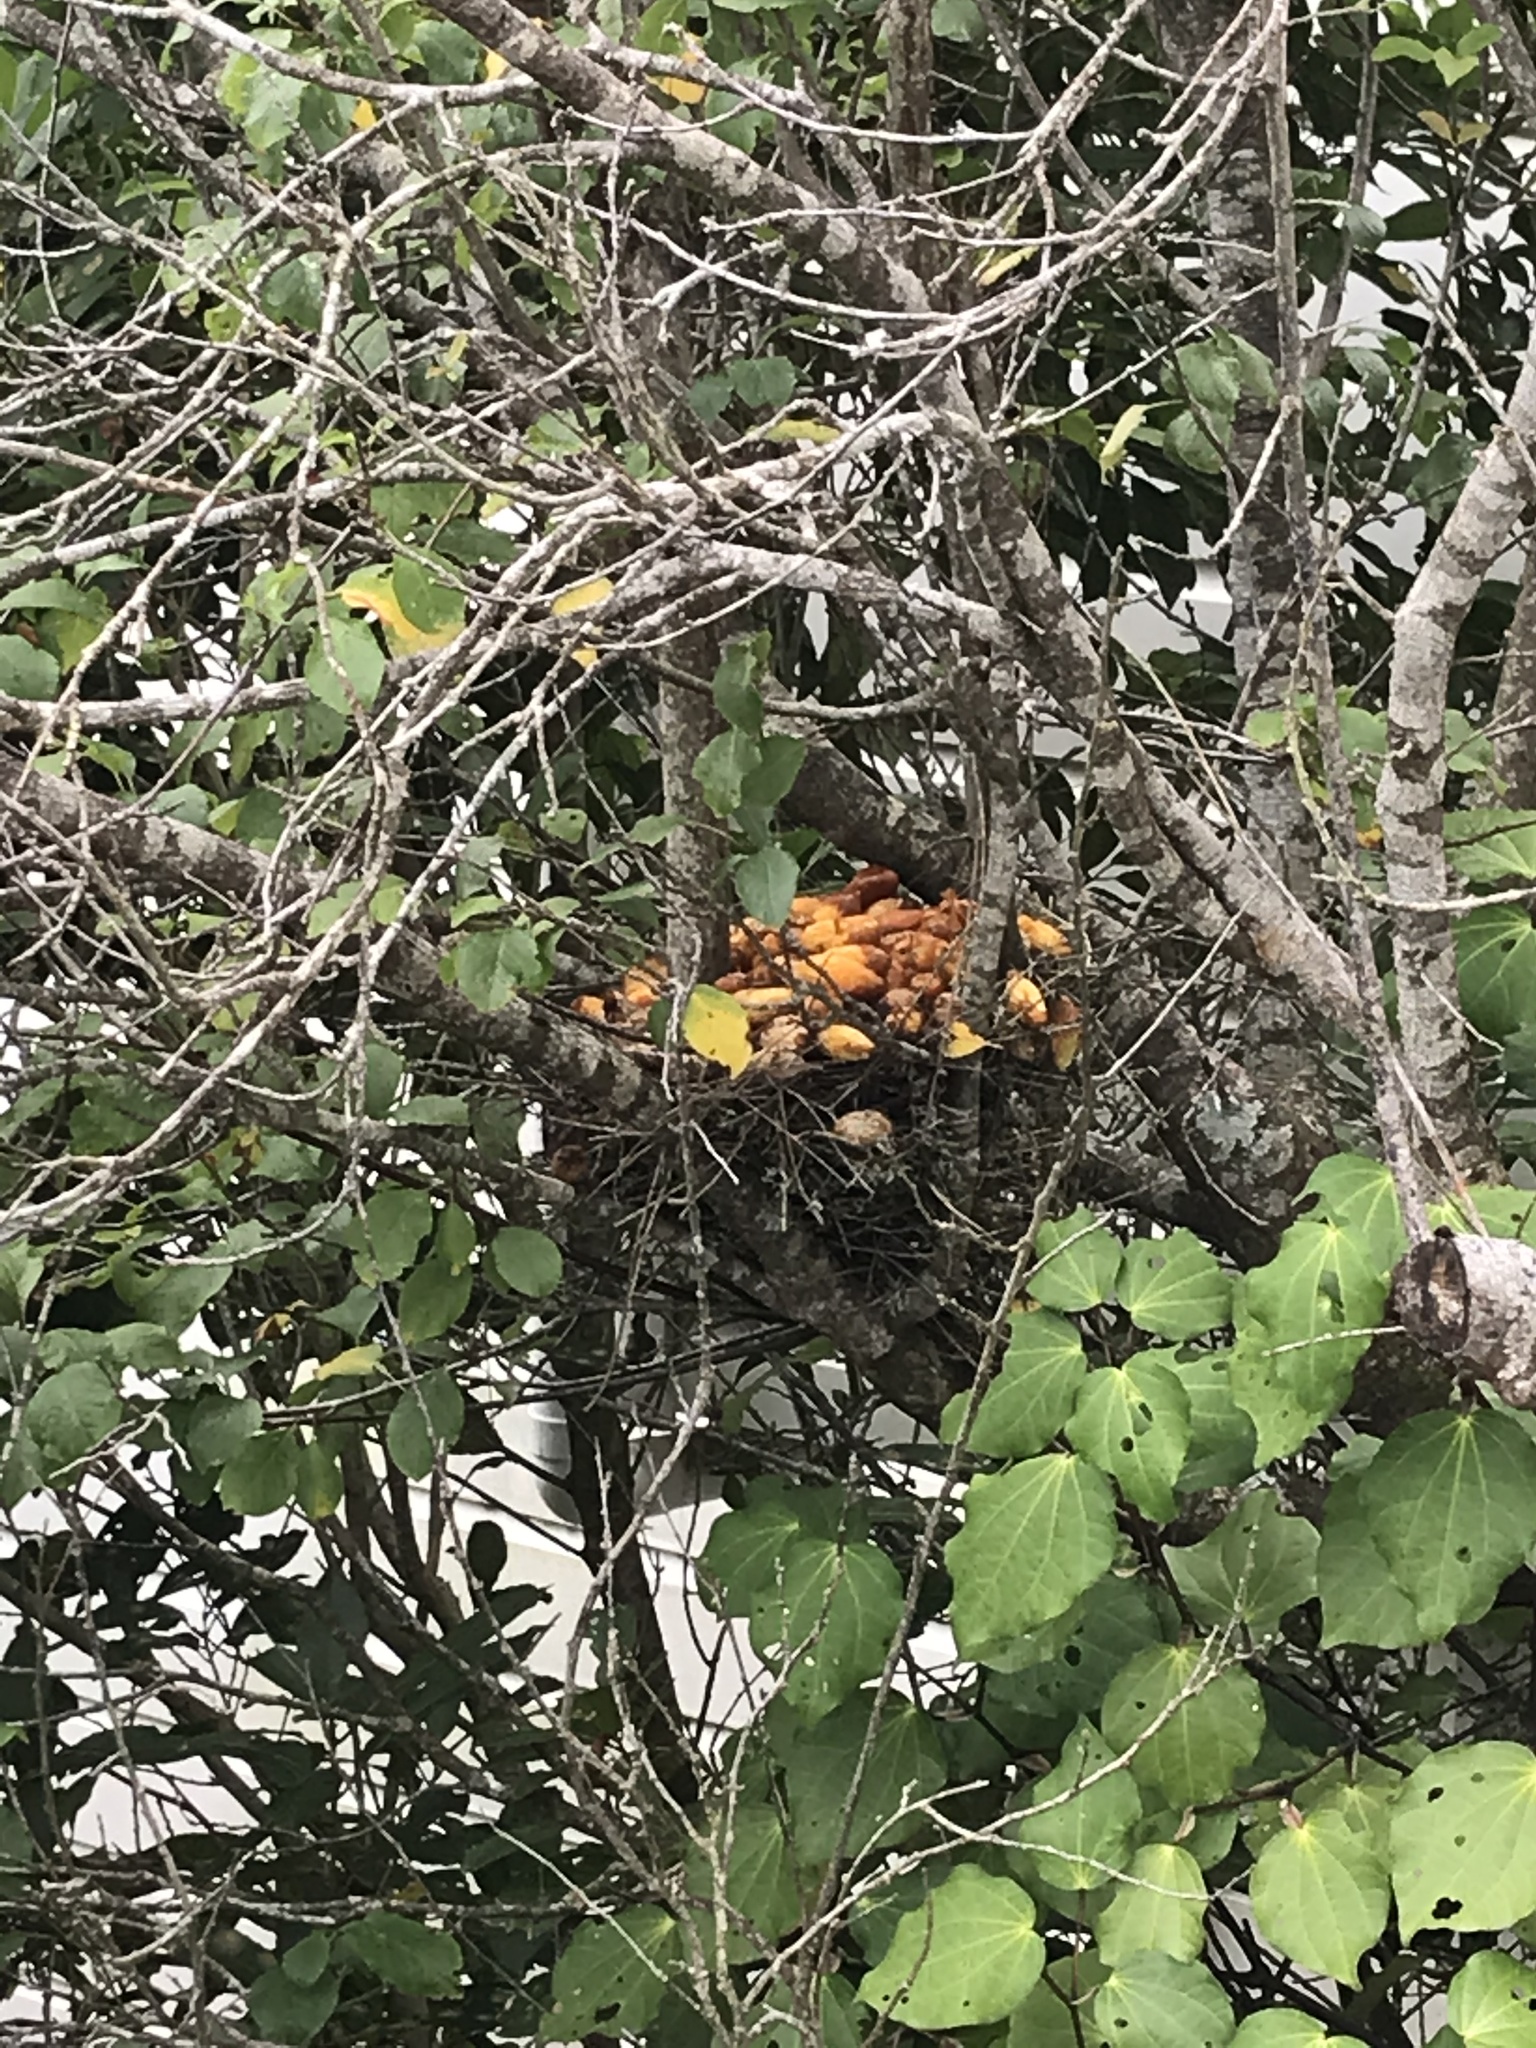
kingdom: Animalia
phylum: Chordata
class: Aves
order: Columbiformes
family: Columbidae
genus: Hemiphaga
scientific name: Hemiphaga novaeseelandiae
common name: New zealand pigeon
